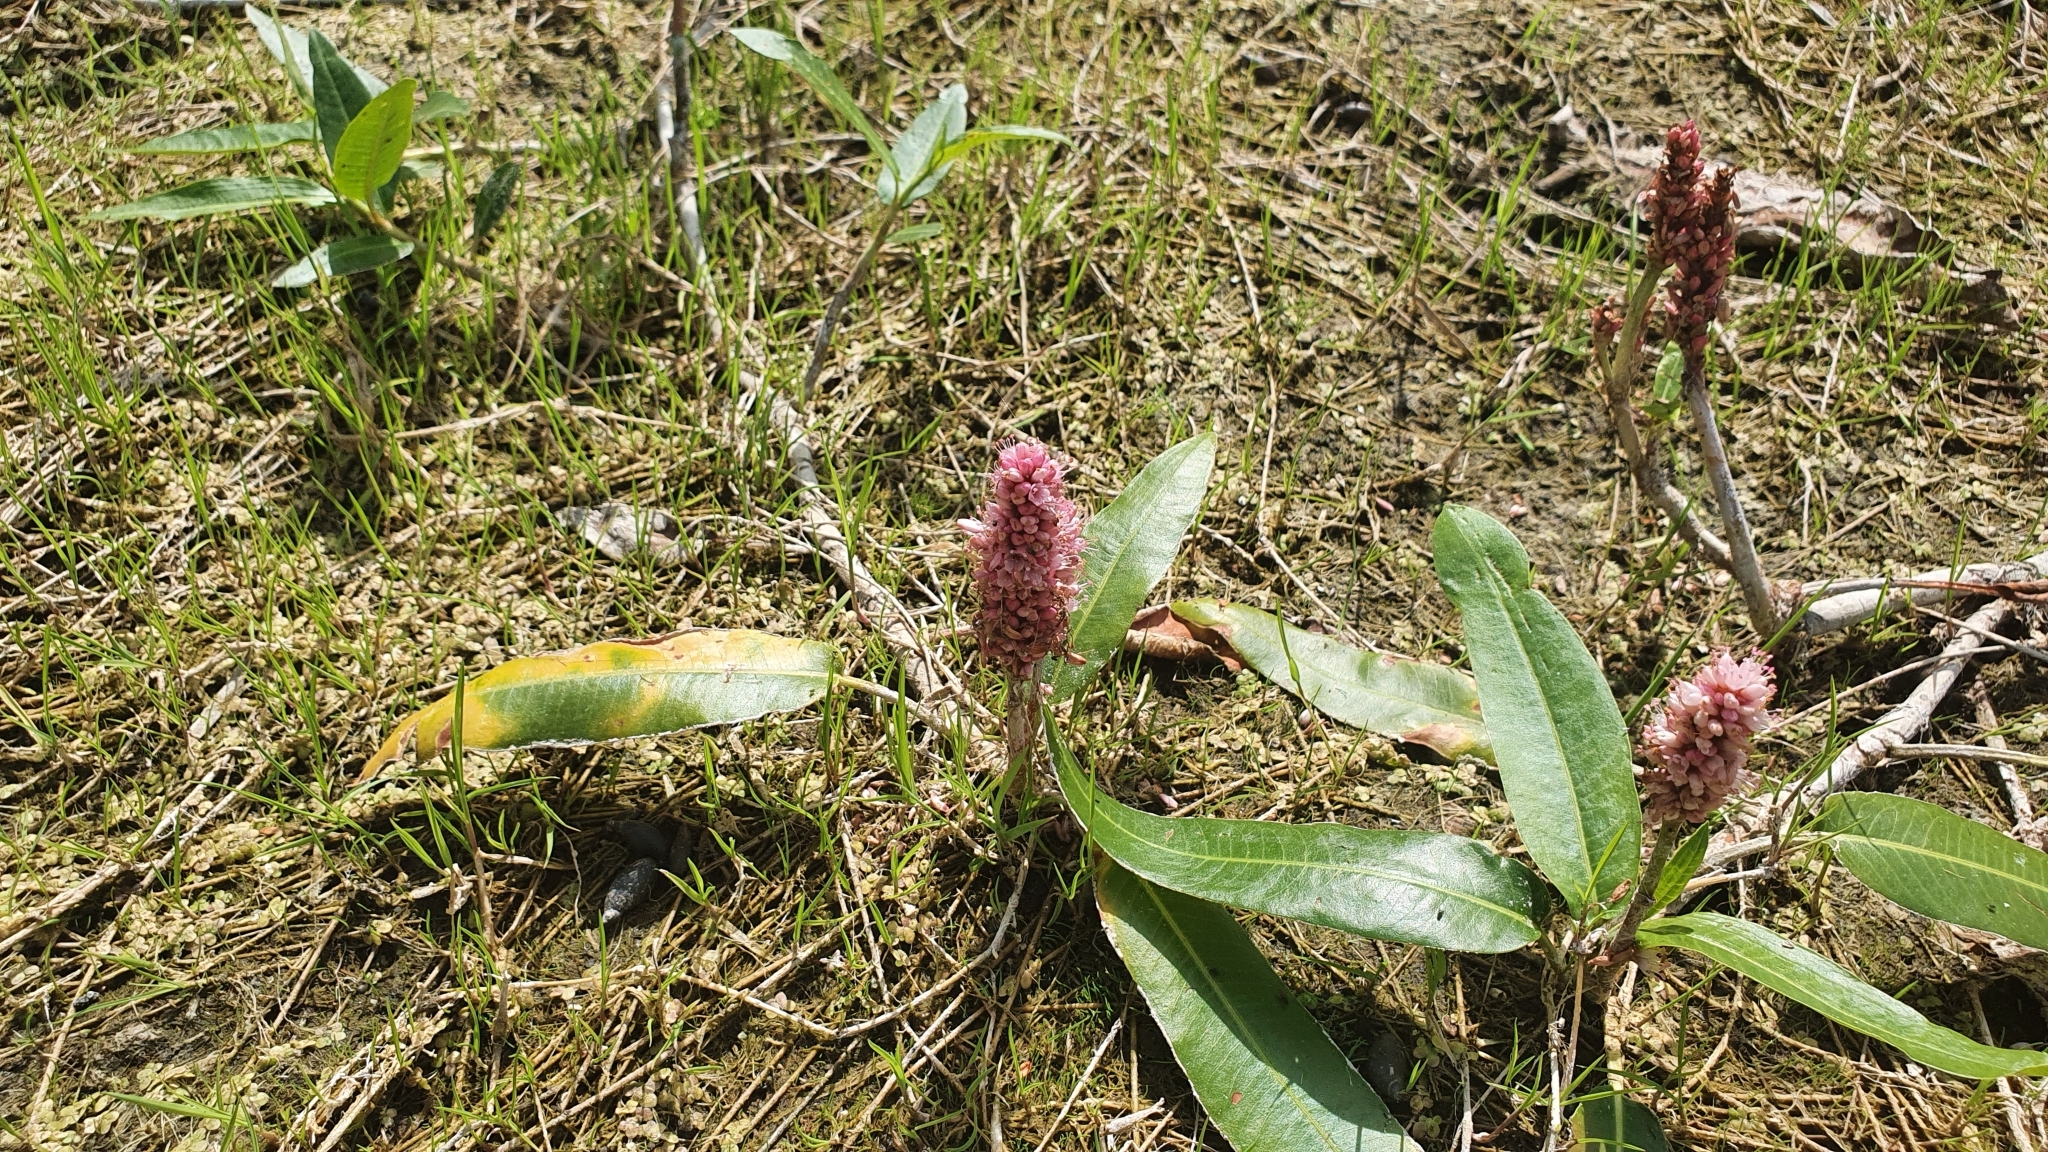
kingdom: Plantae
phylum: Tracheophyta
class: Magnoliopsida
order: Caryophyllales
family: Polygonaceae
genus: Persicaria
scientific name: Persicaria amphibia
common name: Amphibious bistort
